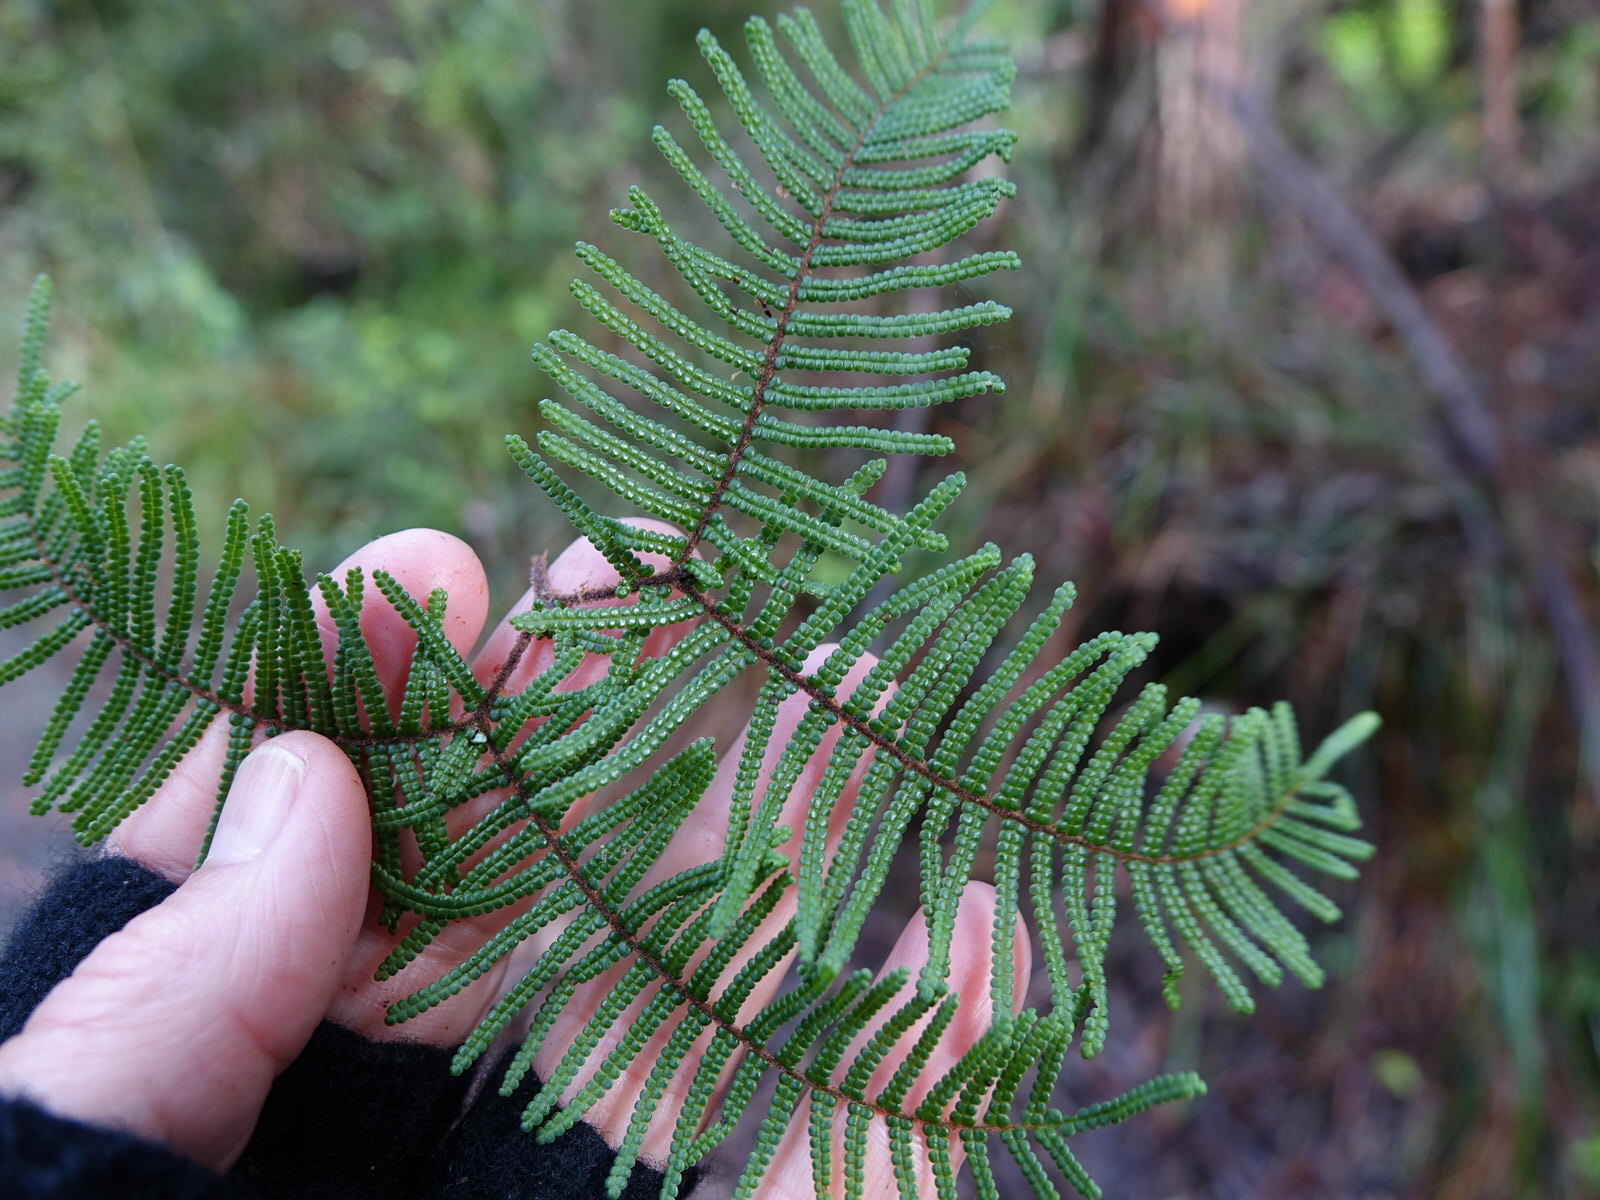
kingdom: Plantae
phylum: Tracheophyta
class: Polypodiopsida
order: Gleicheniales
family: Gleicheniaceae
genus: Gleichenia
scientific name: Gleichenia dicarpa
